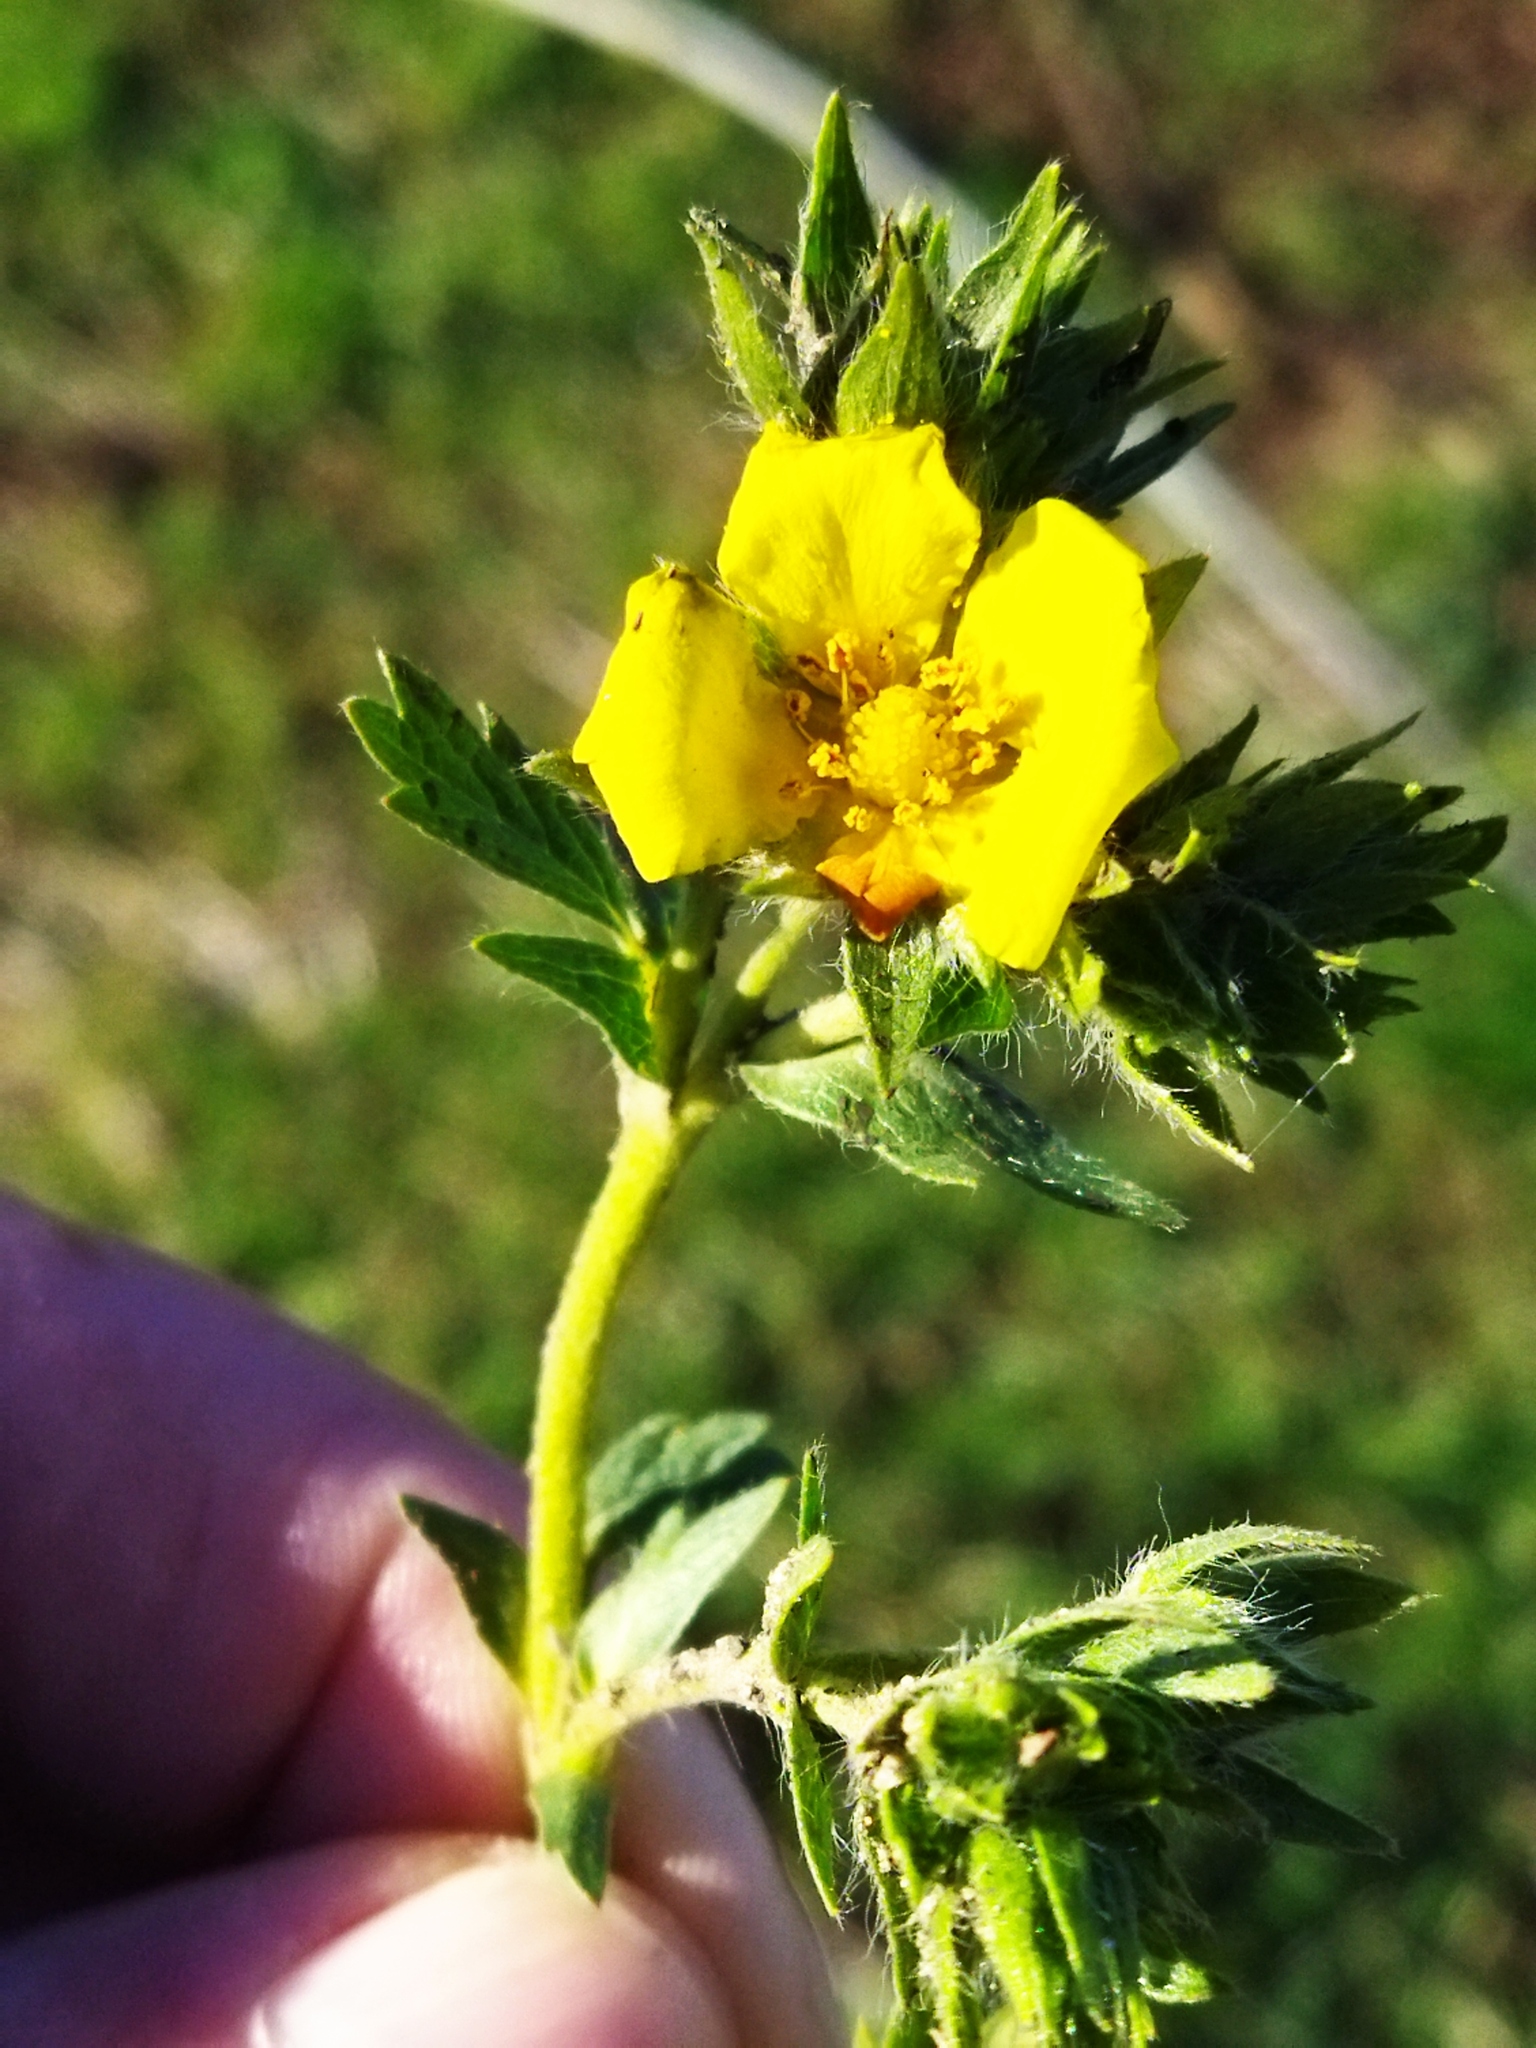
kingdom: Plantae
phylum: Tracheophyta
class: Magnoliopsida
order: Rosales
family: Rosaceae
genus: Potentilla
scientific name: Potentilla astracanica
